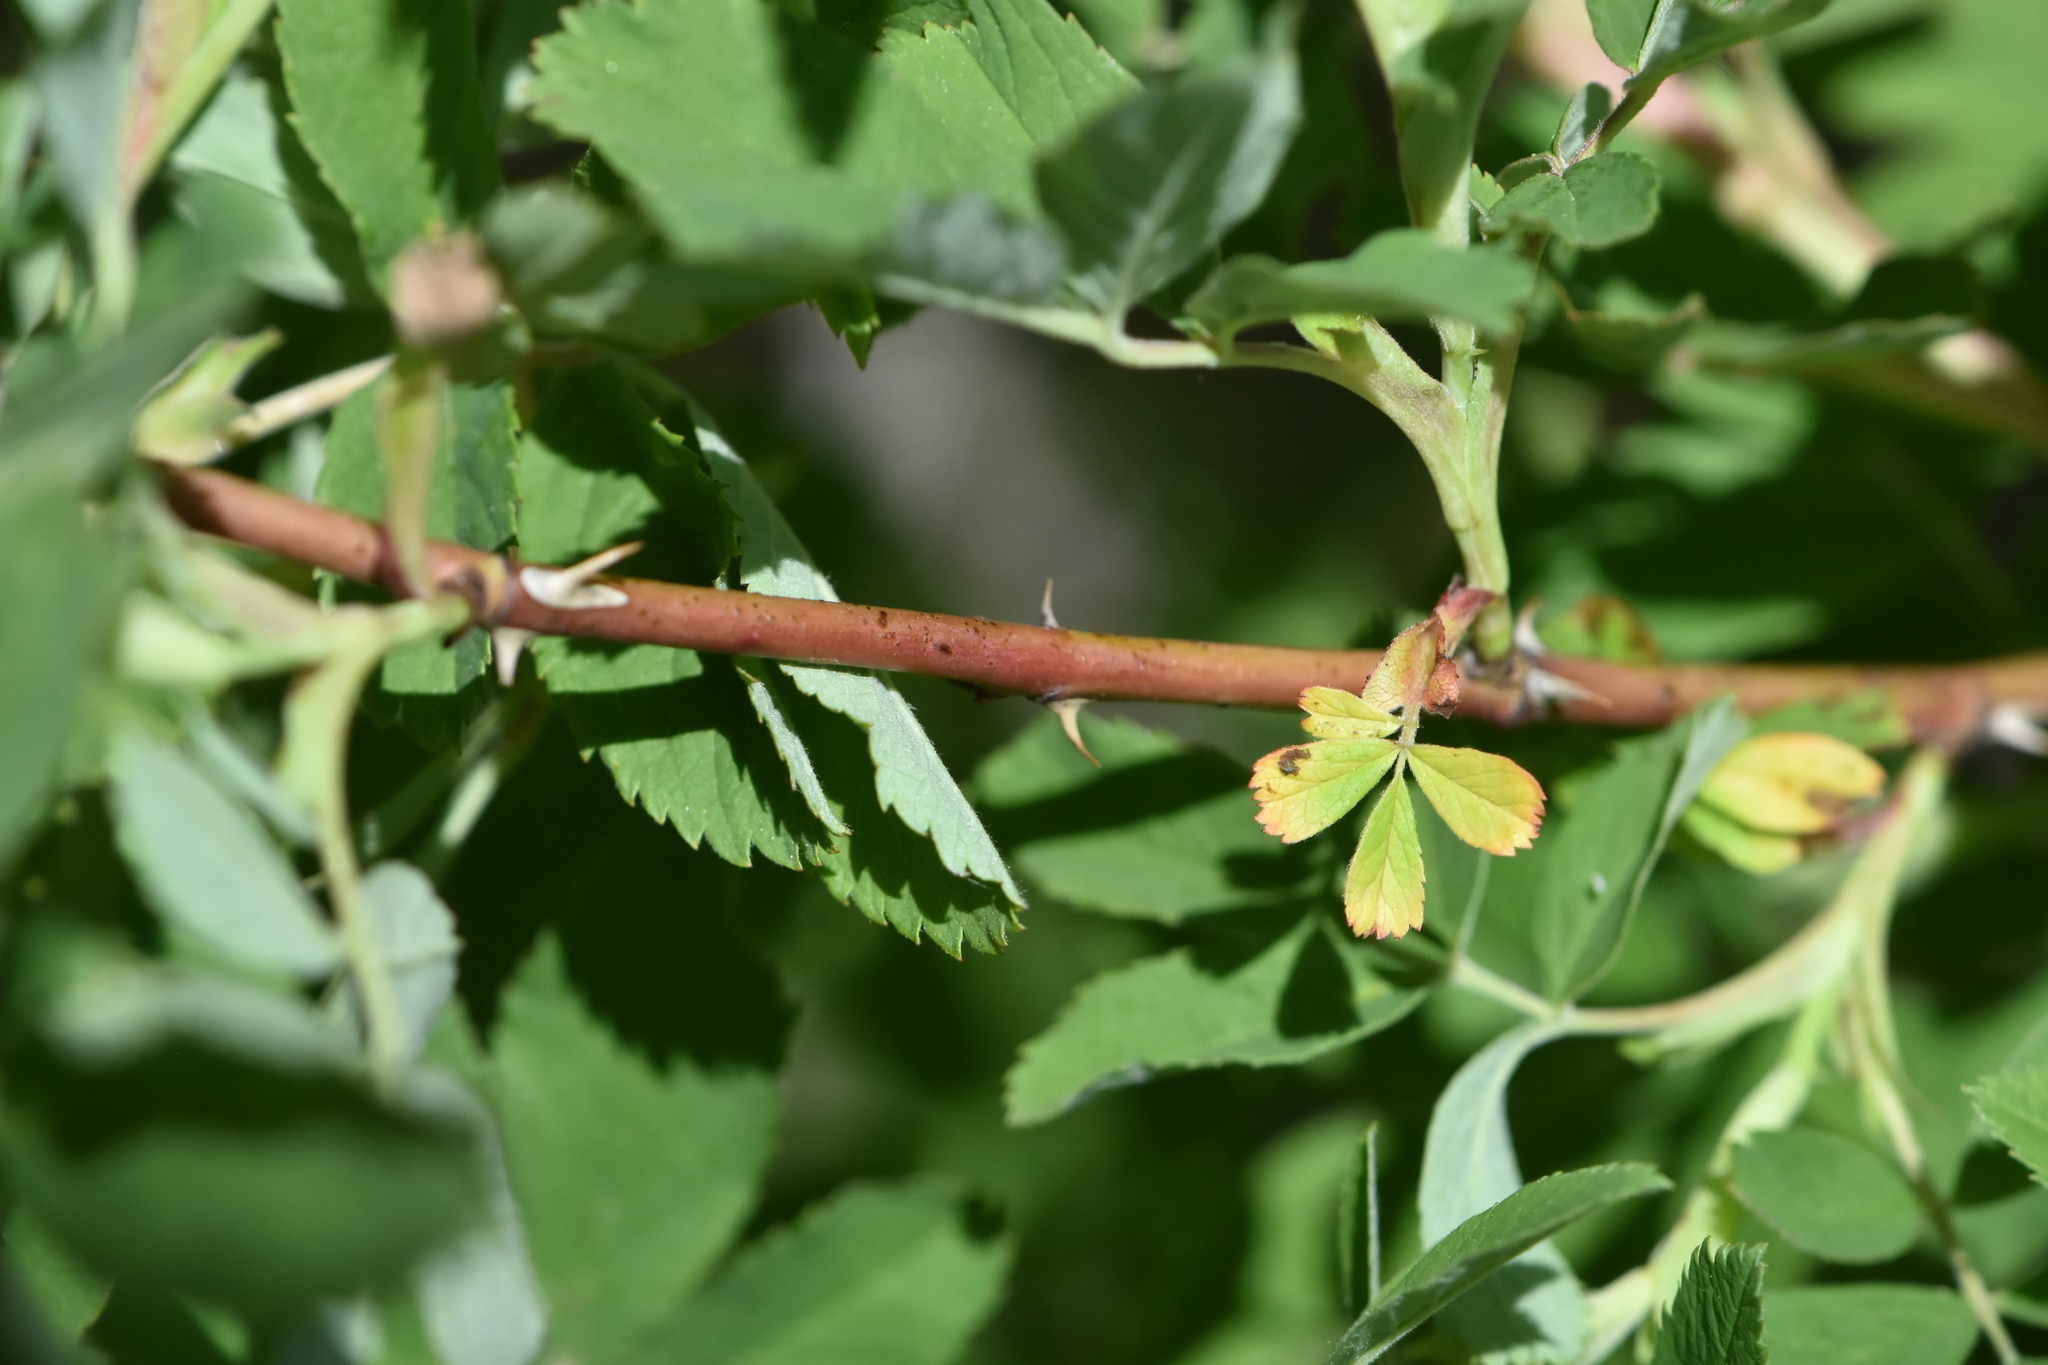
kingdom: Plantae
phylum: Tracheophyta
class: Magnoliopsida
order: Rosales
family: Rosaceae
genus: Rosa
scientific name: Rosa majalis
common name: Cinnamon rose
